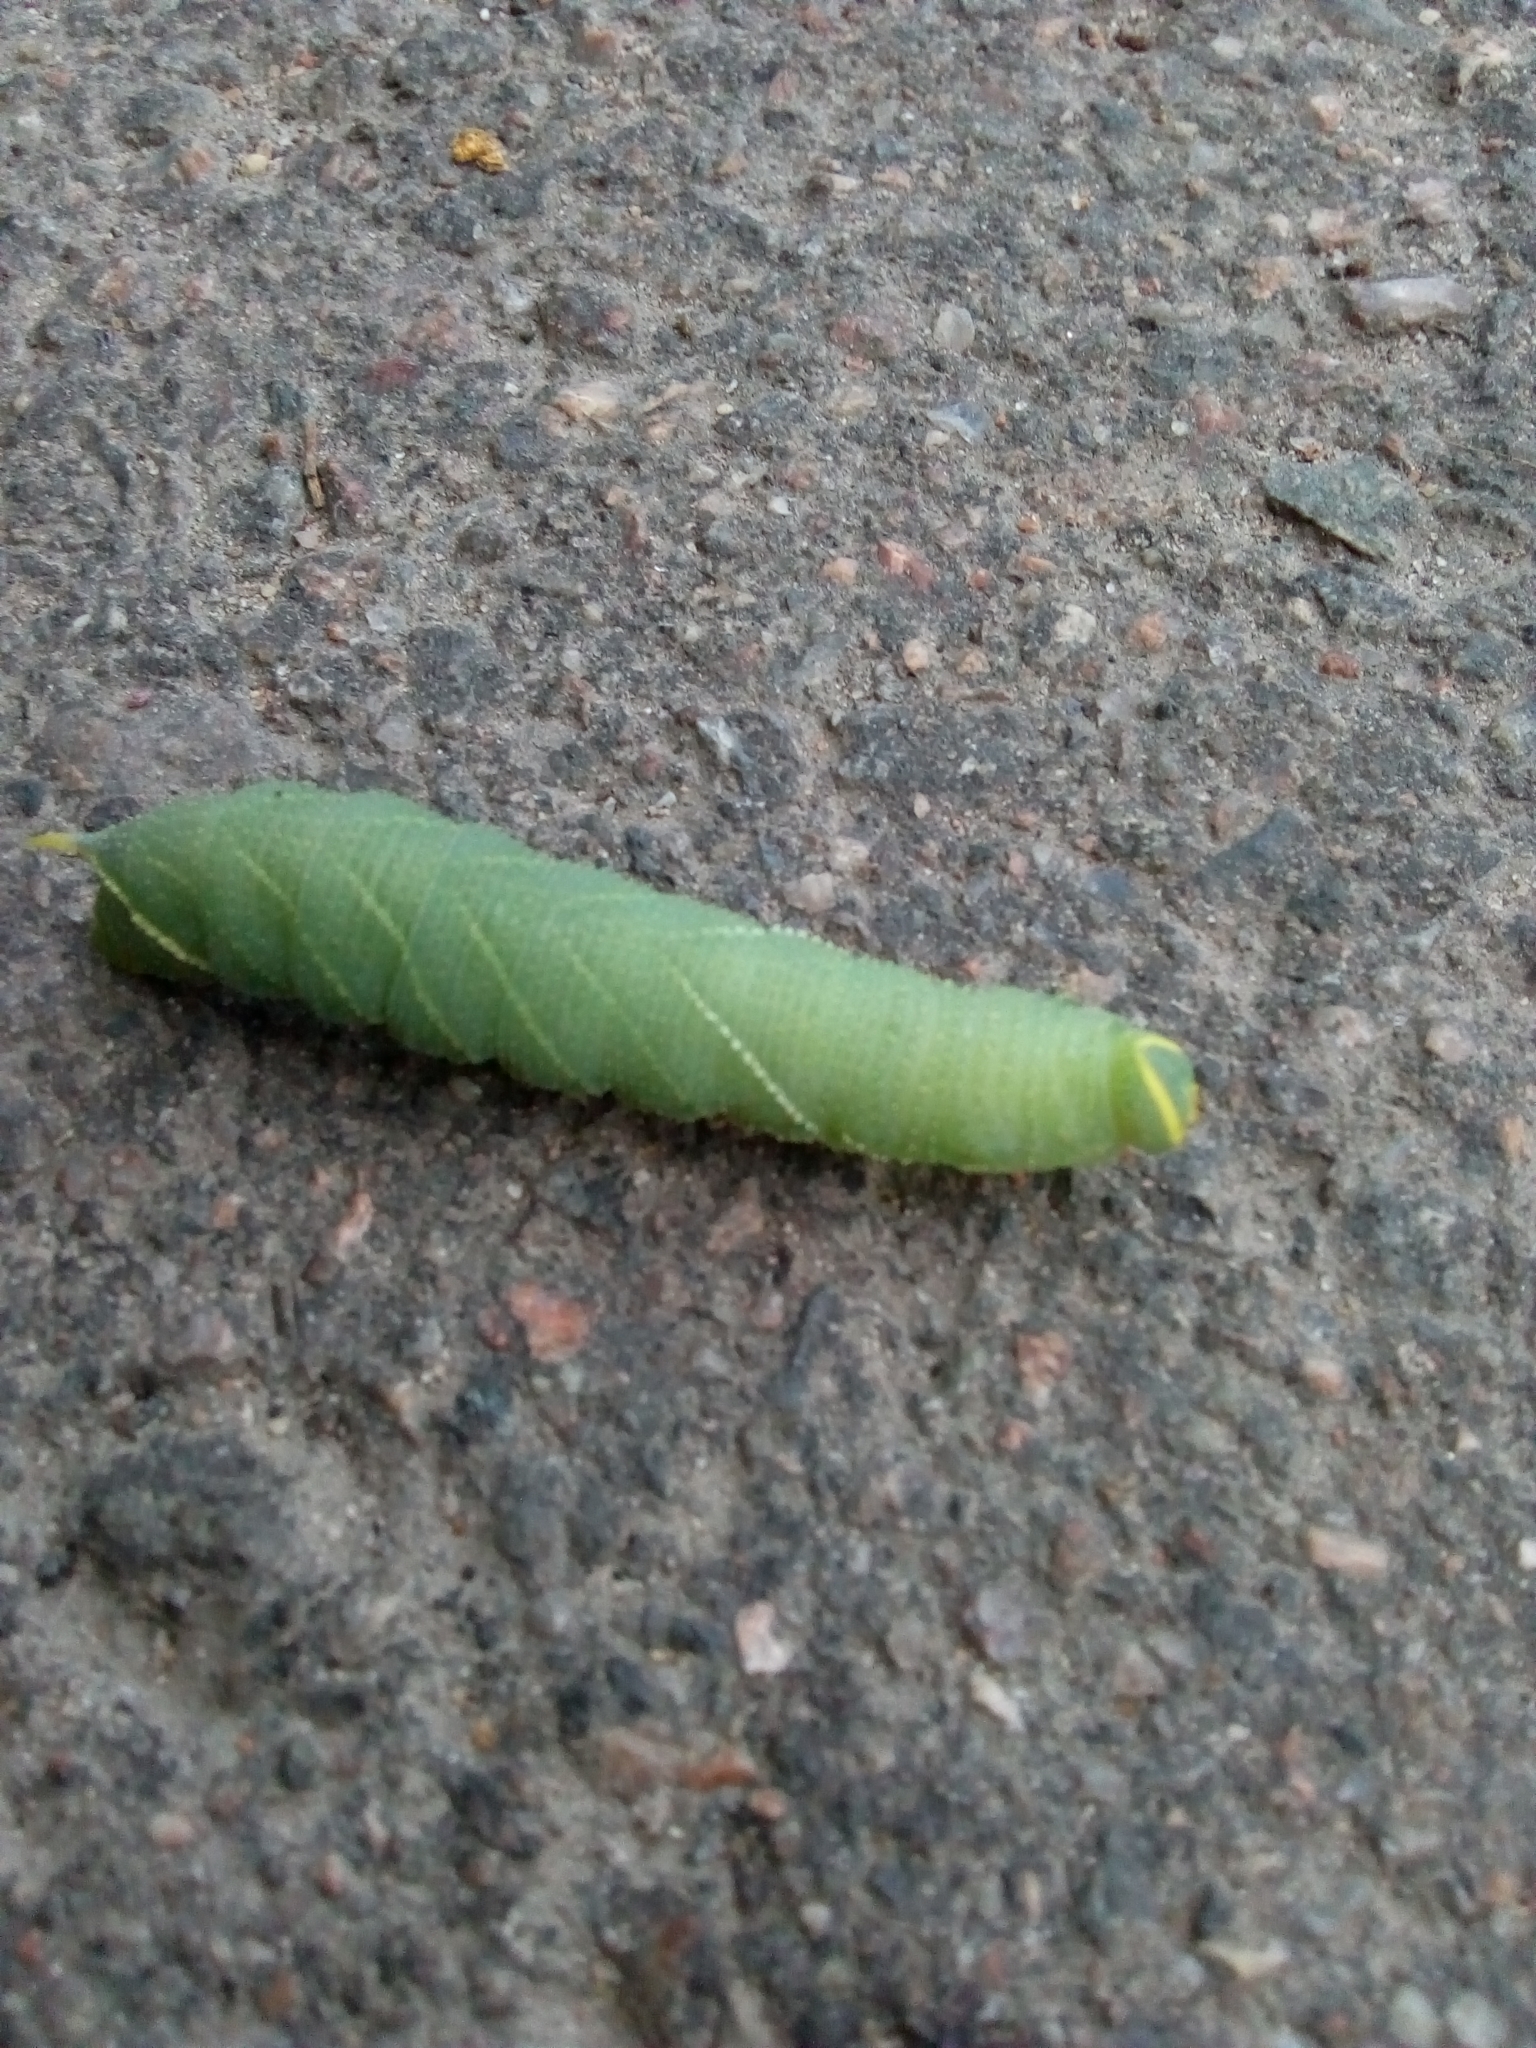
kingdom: Animalia
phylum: Arthropoda
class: Insecta
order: Lepidoptera
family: Sphingidae
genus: Laothoe
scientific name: Laothoe populi
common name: Poplar hawk-moth
